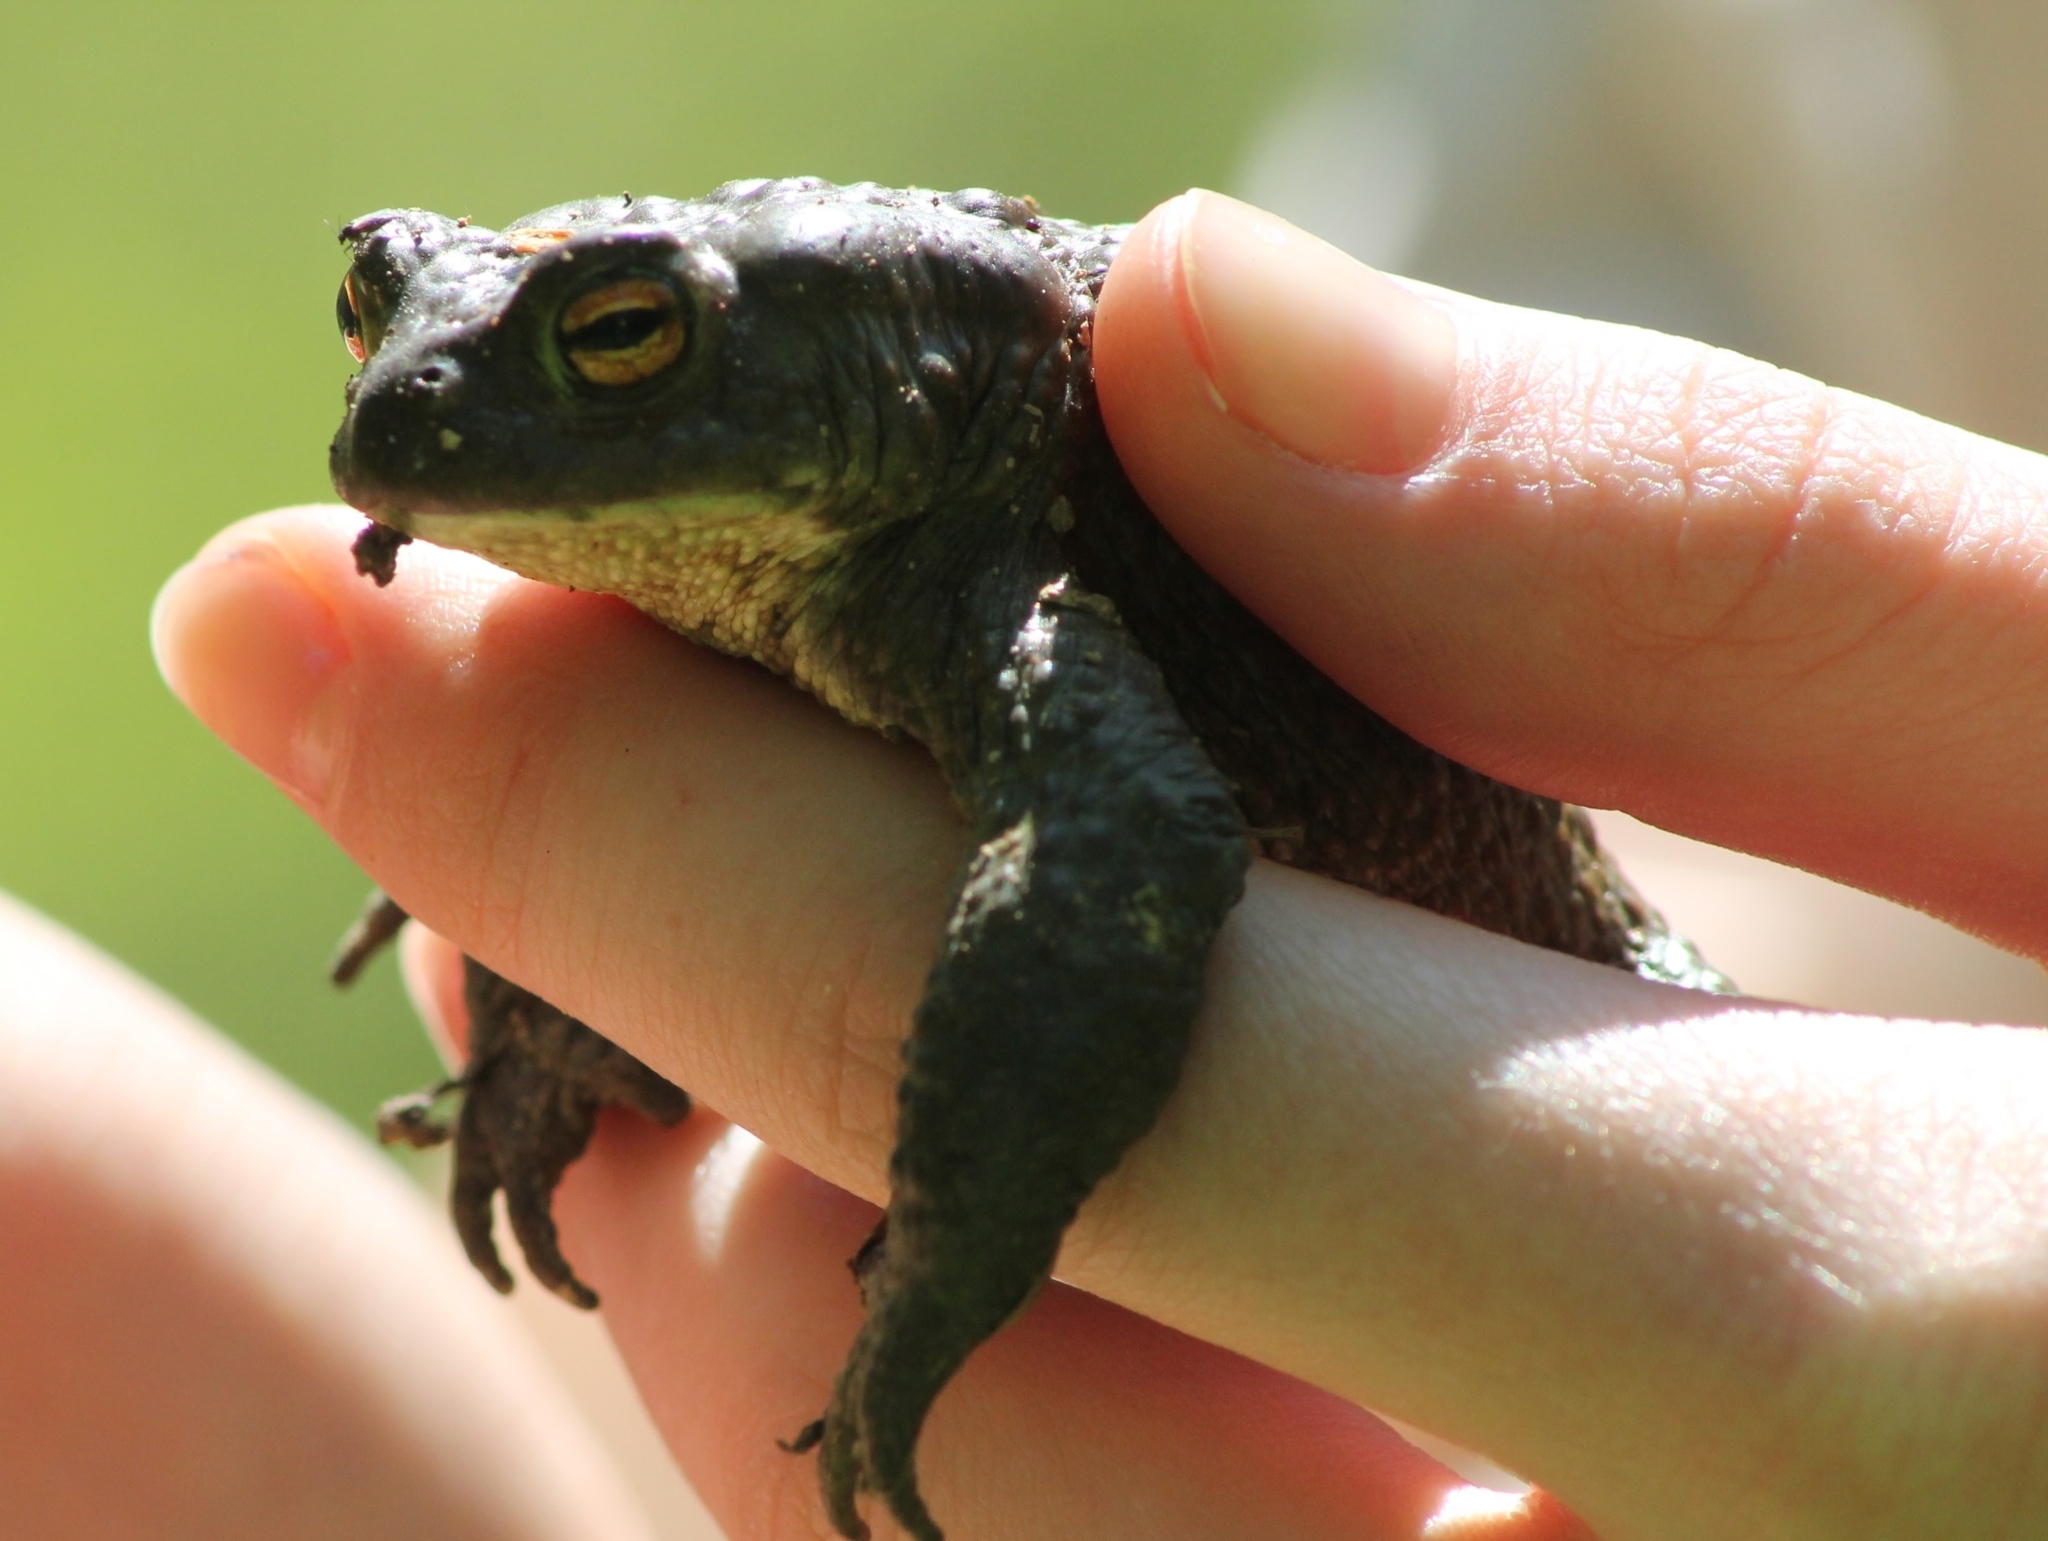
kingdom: Animalia
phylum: Chordata
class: Amphibia
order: Anura
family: Bufonidae
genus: Bufo
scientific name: Bufo bufo
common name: Common toad
